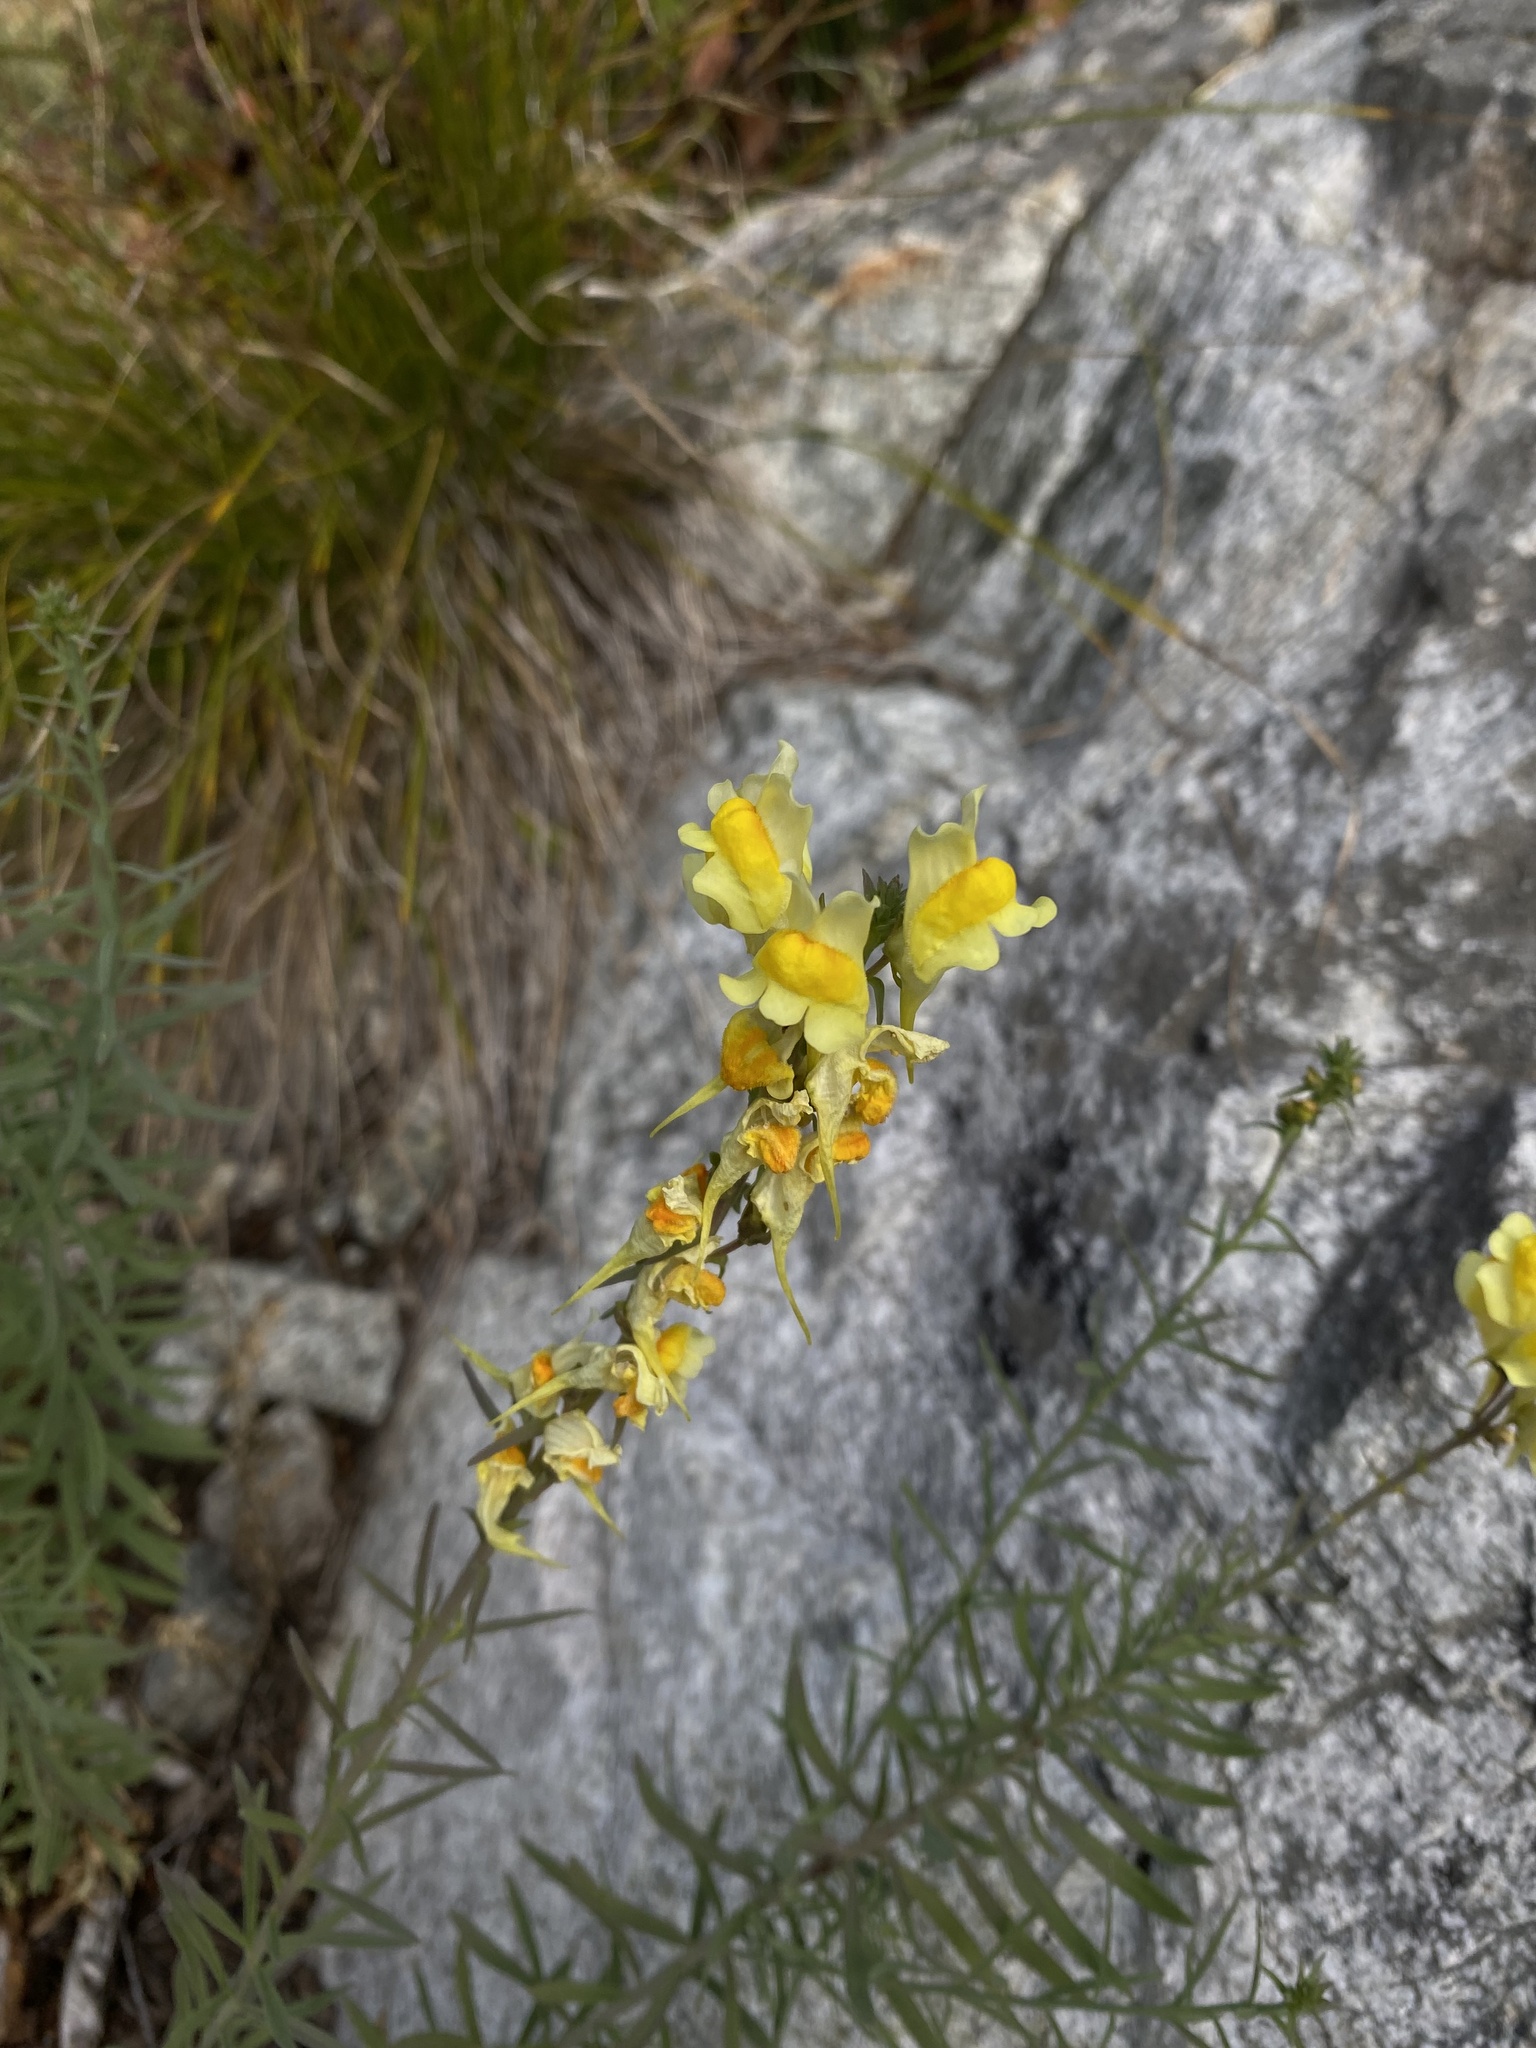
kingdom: Plantae
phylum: Tracheophyta
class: Magnoliopsida
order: Lamiales
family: Plantaginaceae
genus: Linaria
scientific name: Linaria vulgaris
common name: Butter and eggs
